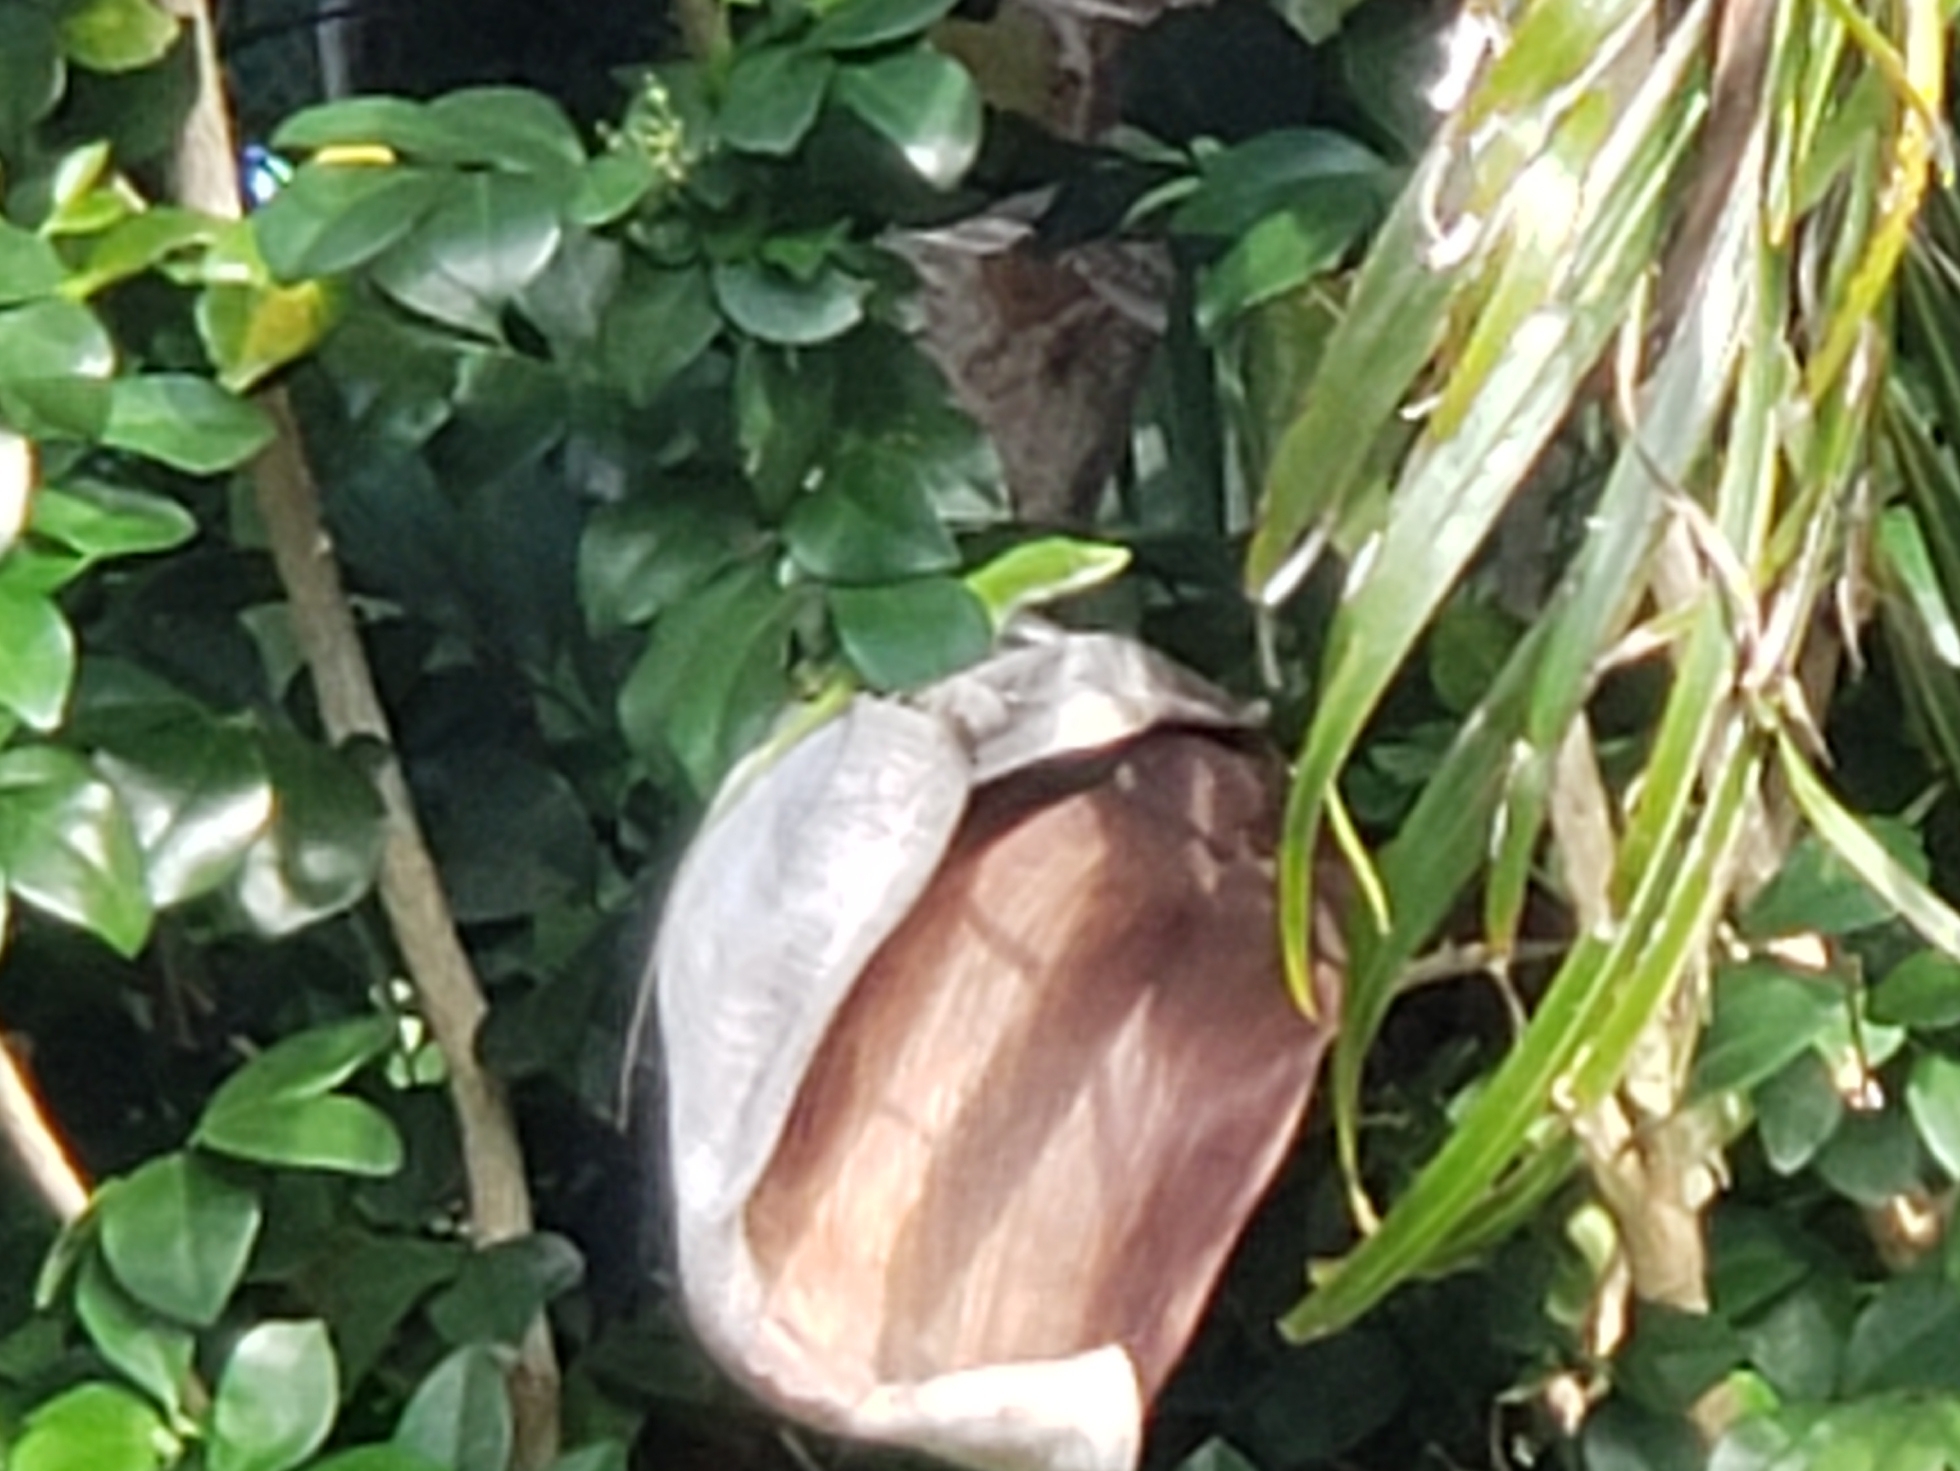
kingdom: Animalia
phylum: Chordata
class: Squamata
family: Dactyloidae
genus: Anolis
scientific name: Anolis carolinensis
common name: Green anole
